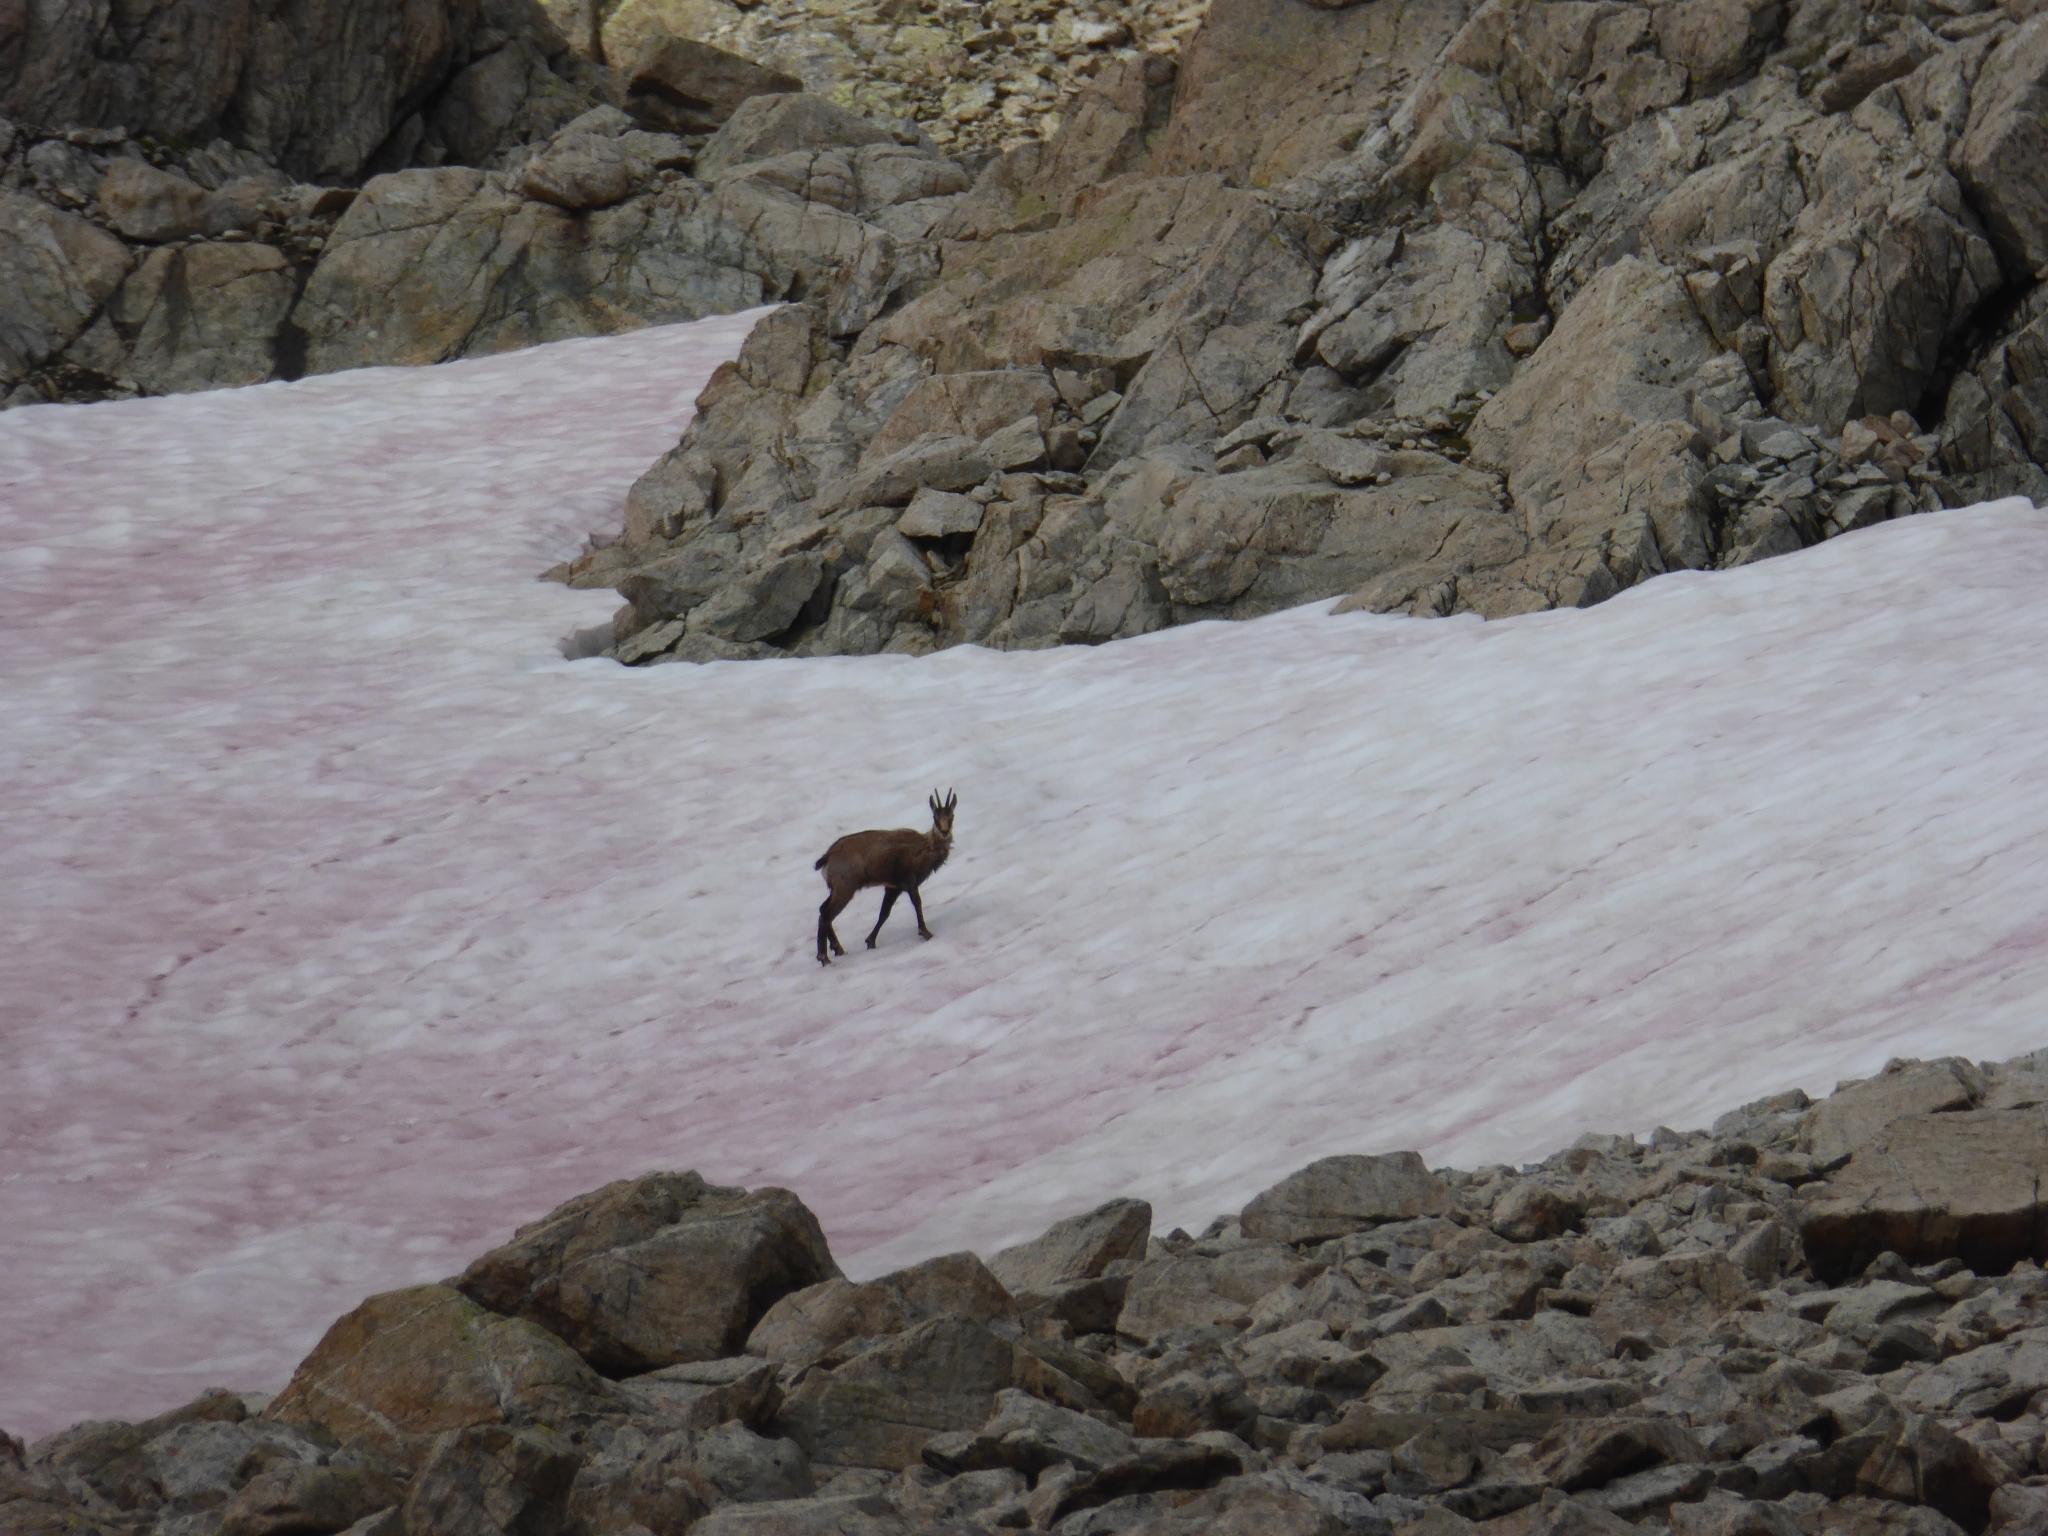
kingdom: Animalia
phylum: Chordata
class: Mammalia
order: Artiodactyla
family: Bovidae
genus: Rupicapra
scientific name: Rupicapra rupicapra
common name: Chamois
